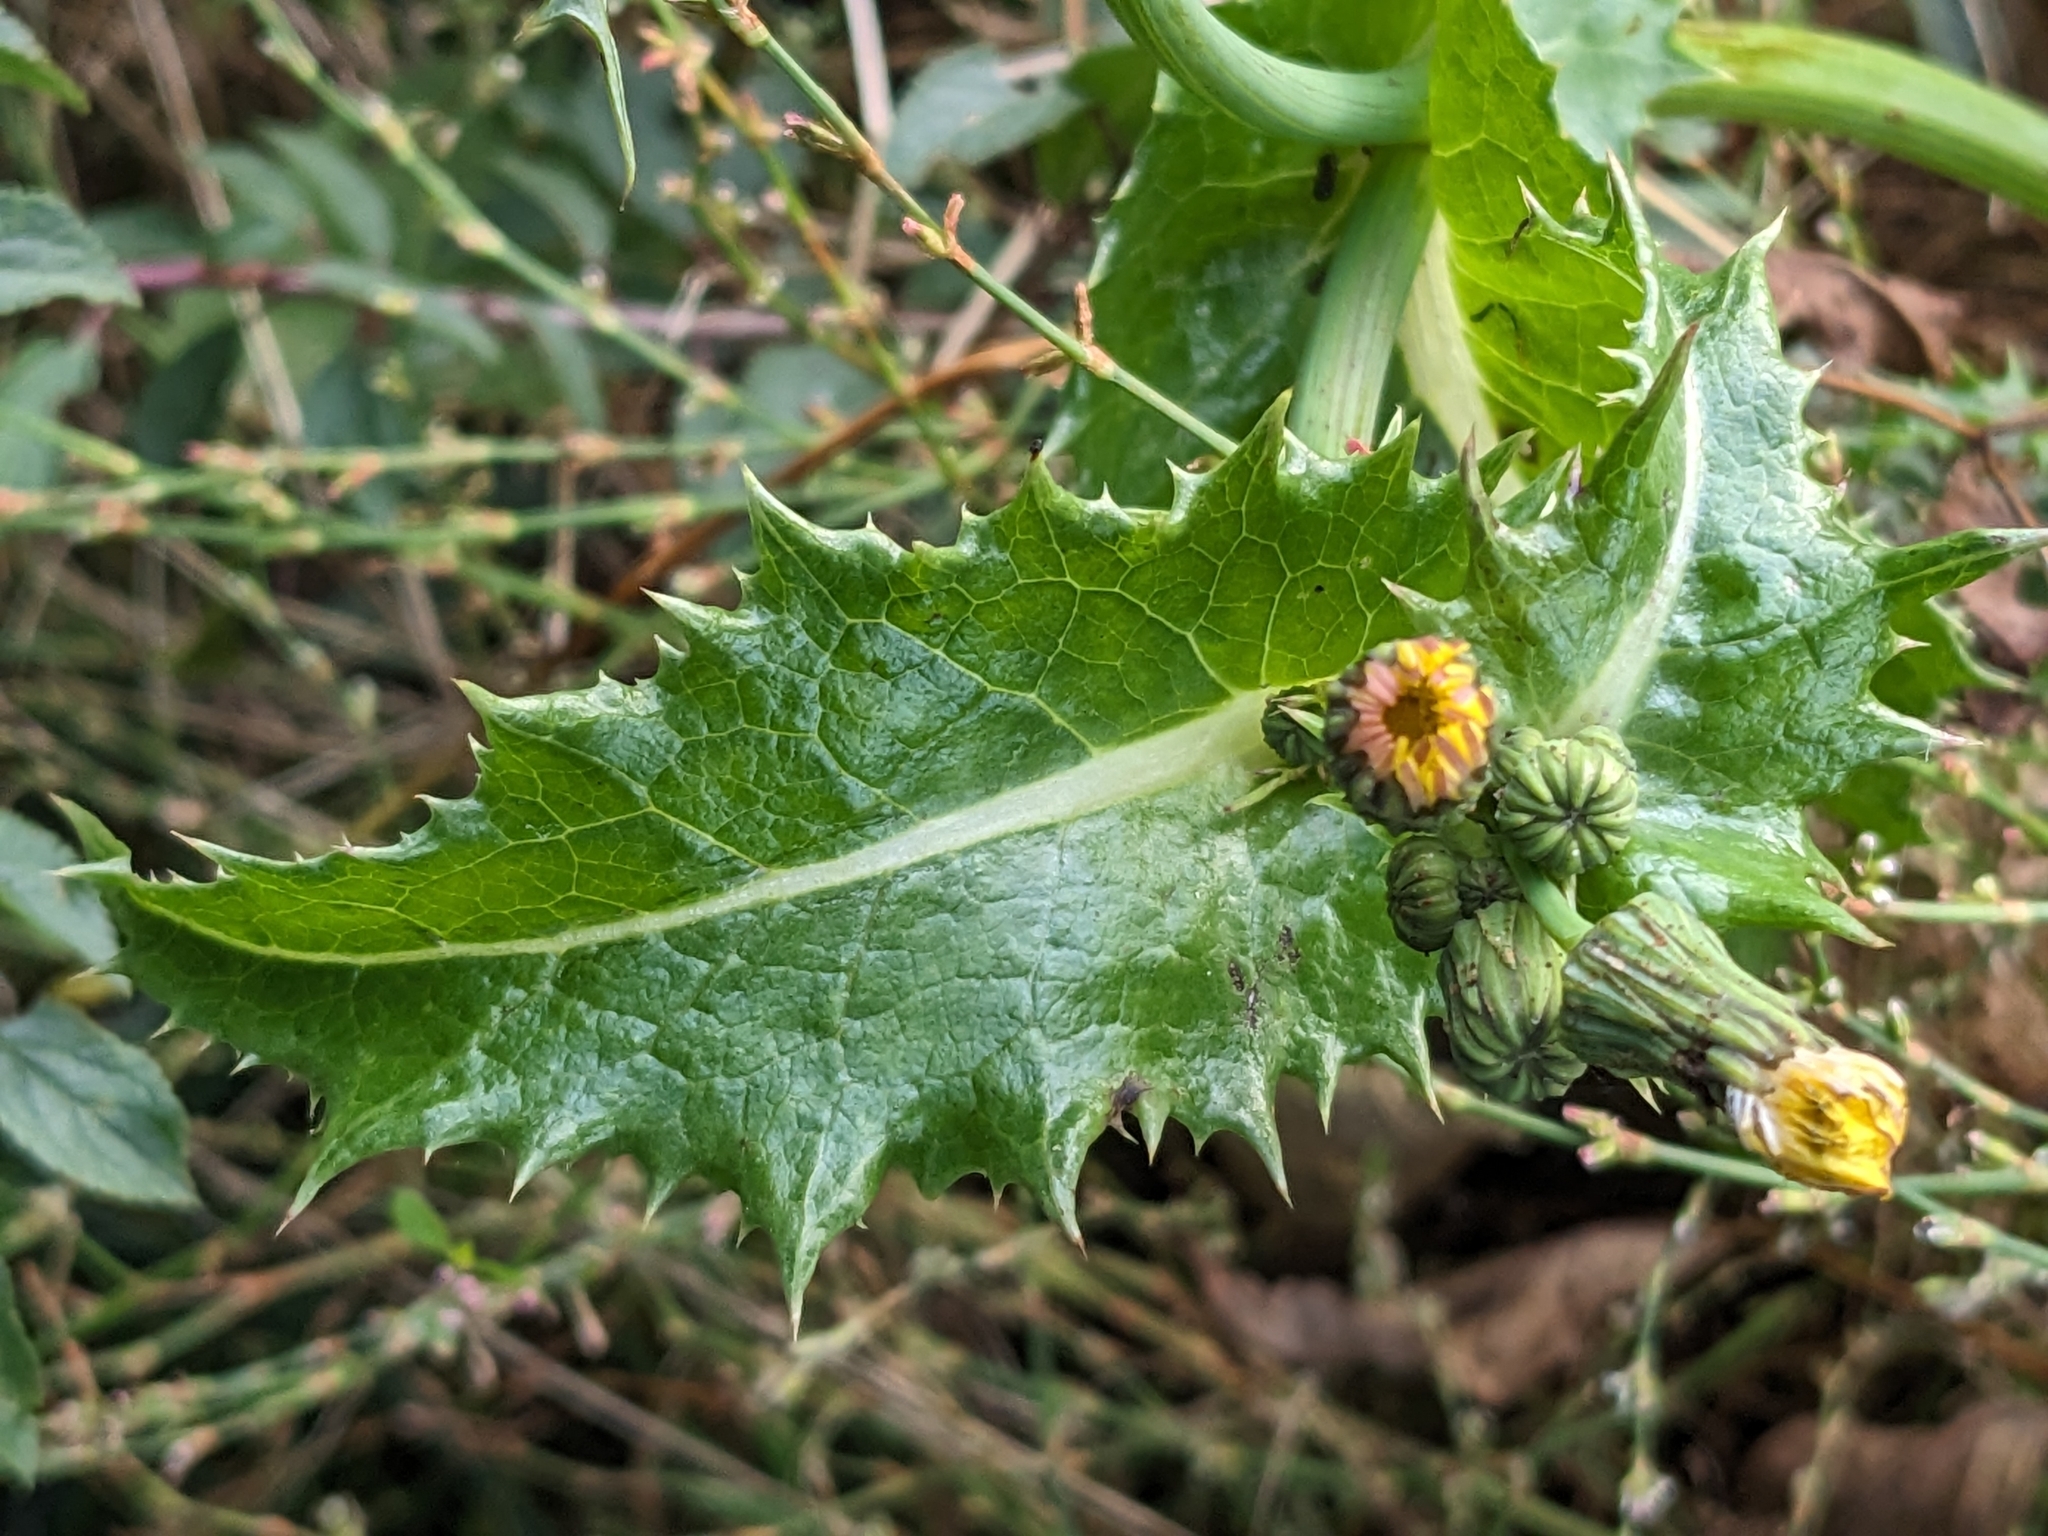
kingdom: Plantae
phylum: Tracheophyta
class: Magnoliopsida
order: Asterales
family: Asteraceae
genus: Sonchus
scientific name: Sonchus asper
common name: Prickly sow-thistle
